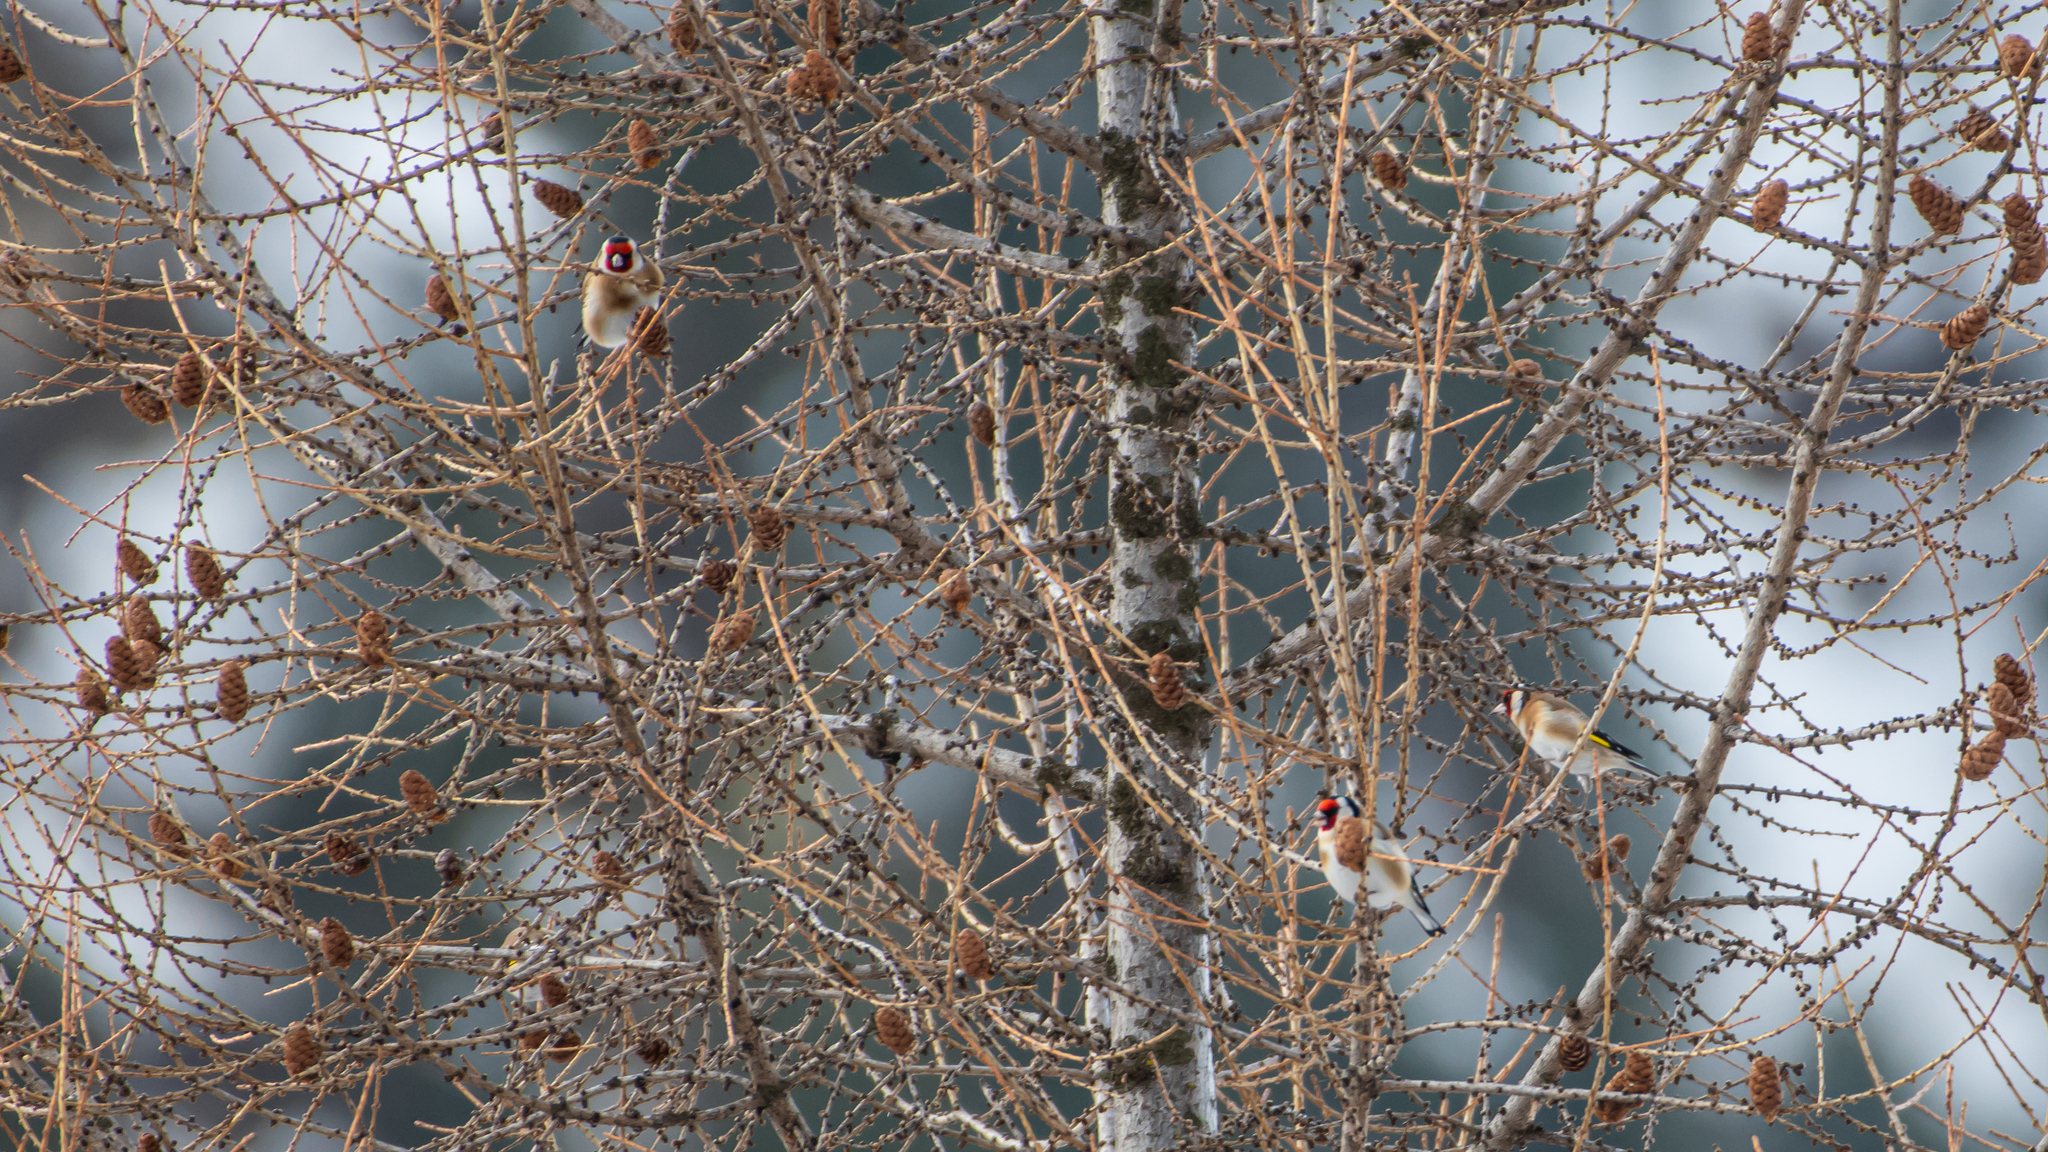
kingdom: Animalia
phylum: Chordata
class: Aves
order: Passeriformes
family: Fringillidae
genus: Carduelis
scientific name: Carduelis carduelis
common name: European goldfinch
